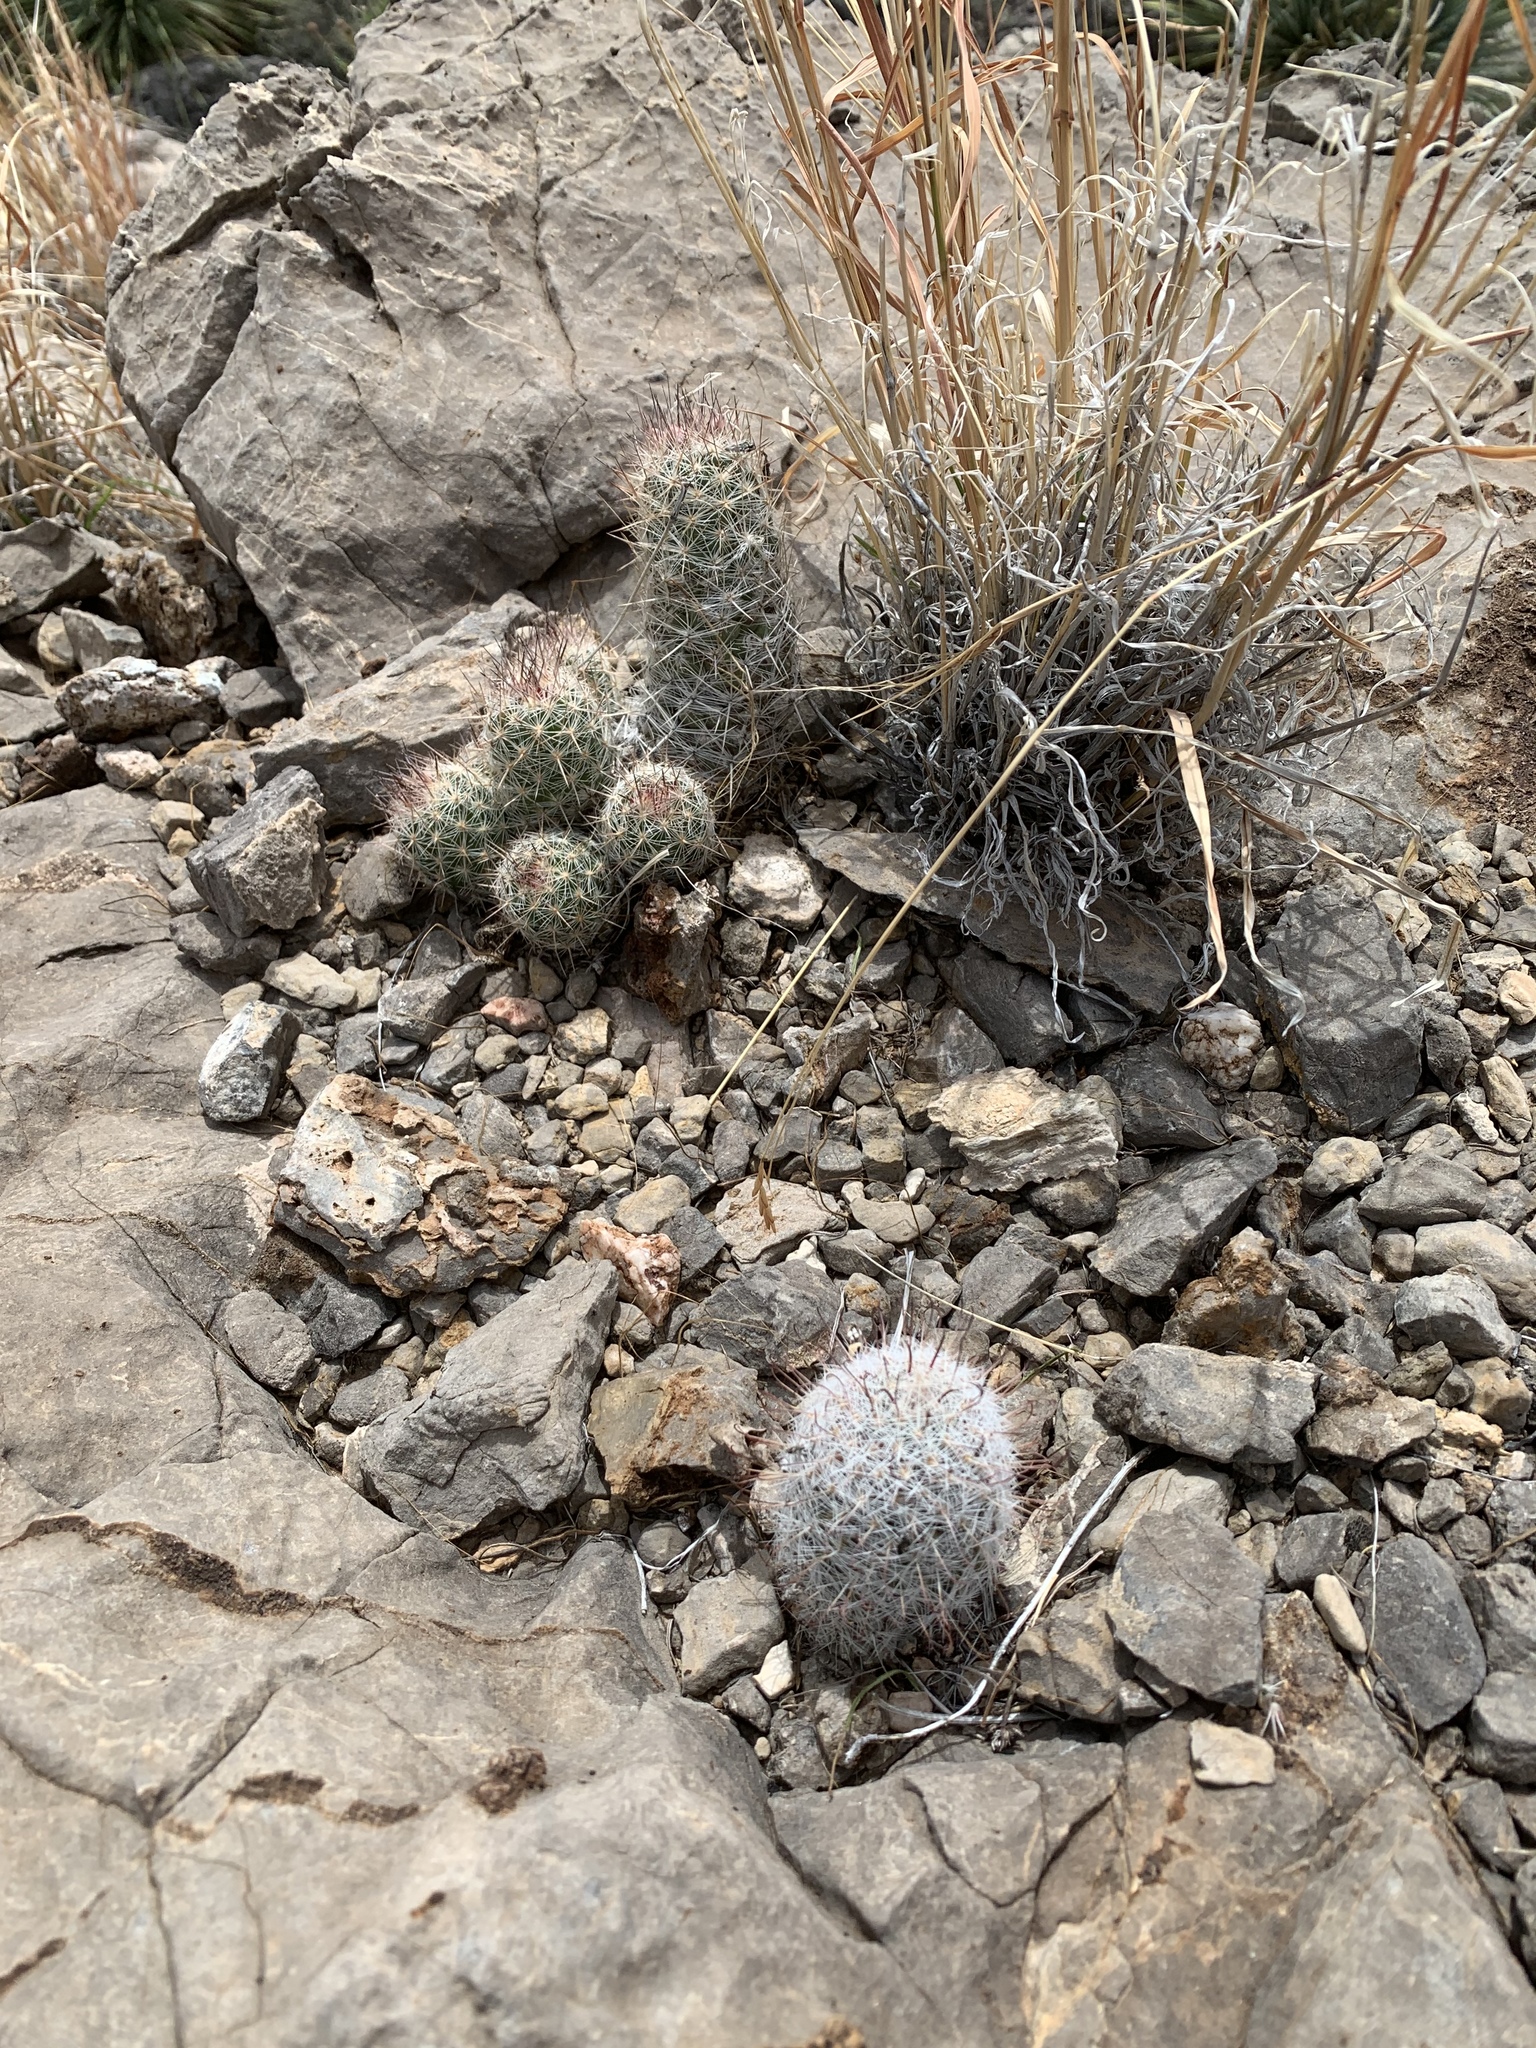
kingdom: Plantae
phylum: Tracheophyta
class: Magnoliopsida
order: Caryophyllales
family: Cactaceae
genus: Pelecyphora
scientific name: Pelecyphora tuberculosa
